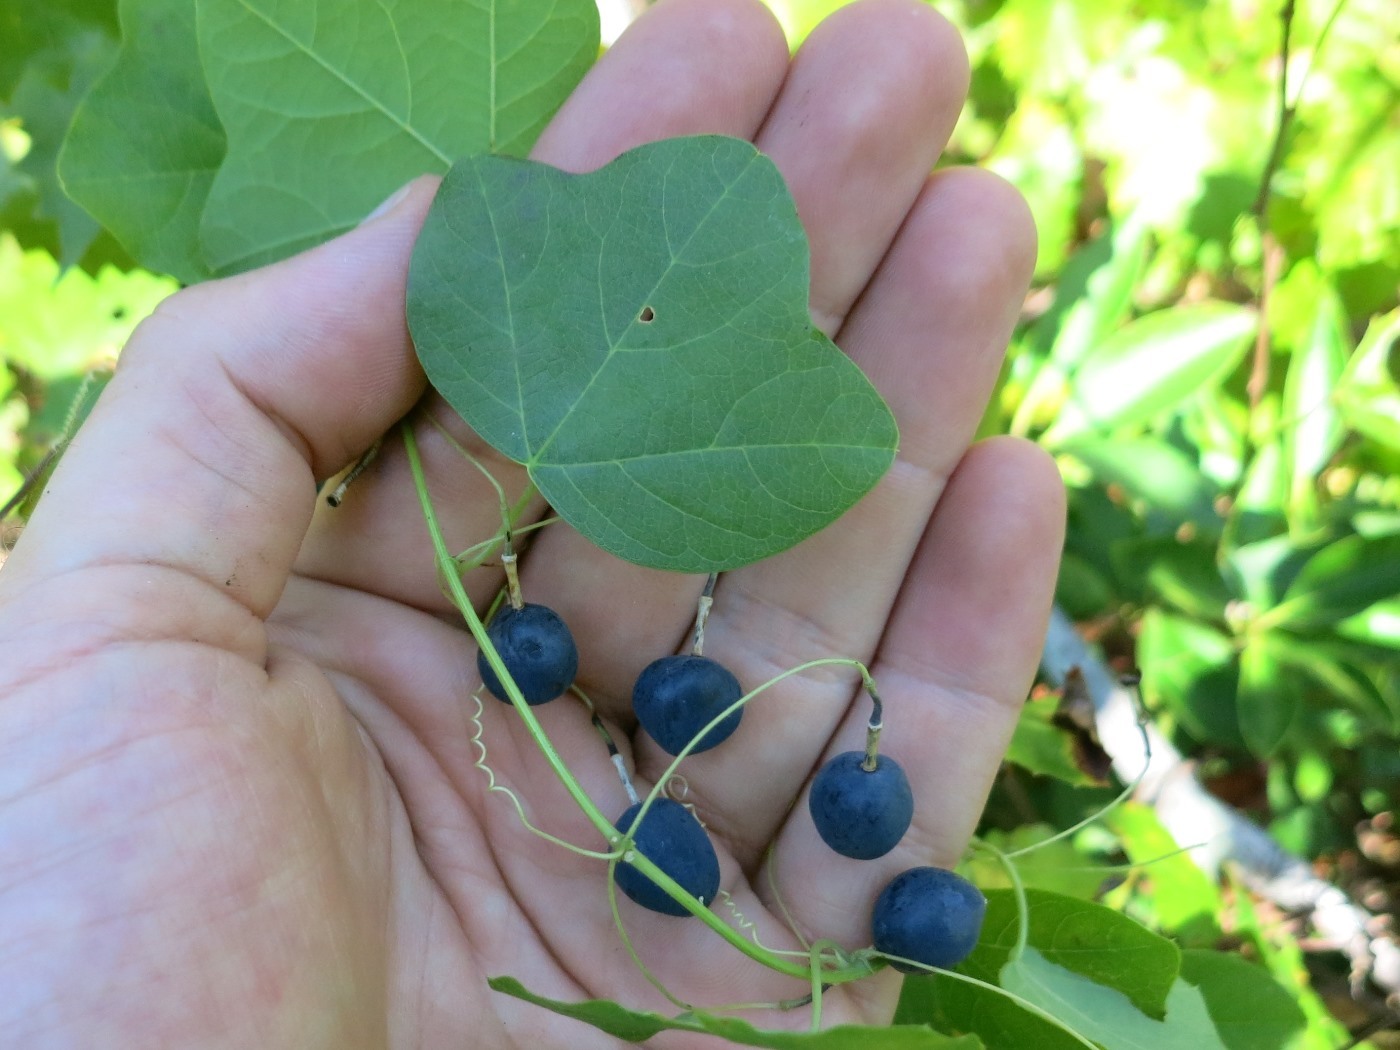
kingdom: Plantae
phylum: Tracheophyta
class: Magnoliopsida
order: Malpighiales
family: Passifloraceae
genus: Passiflora
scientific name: Passiflora lutea
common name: Yellow passionflower
